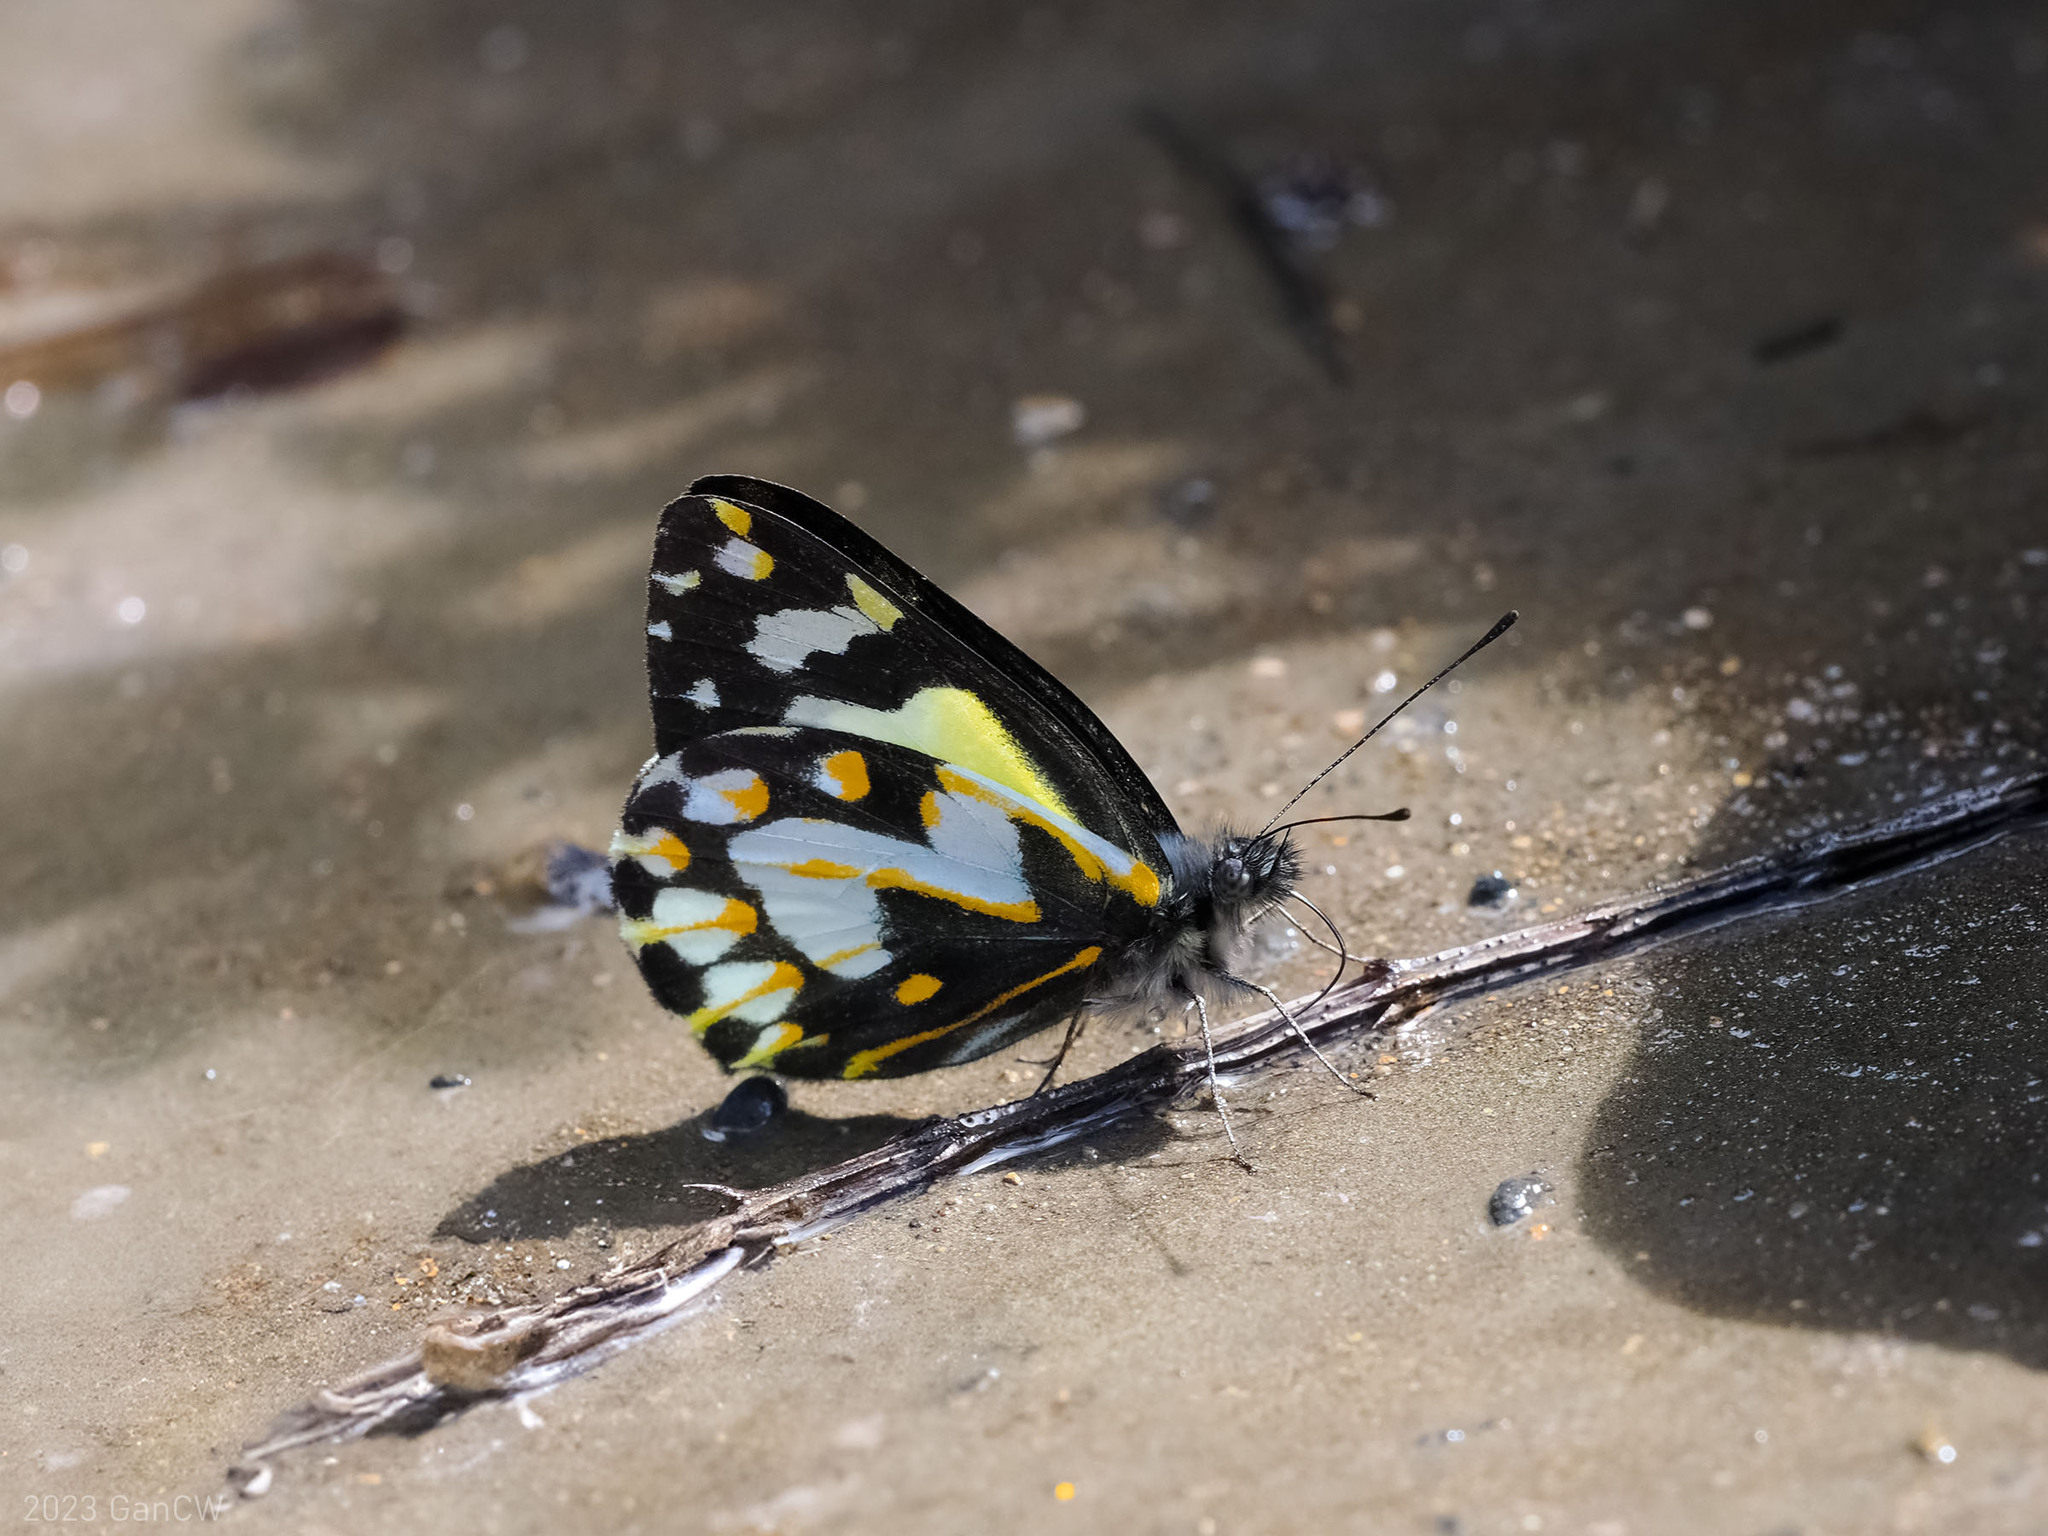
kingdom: Animalia
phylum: Arthropoda
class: Insecta
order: Lepidoptera
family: Pieridae
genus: Delias
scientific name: Delias catisa
